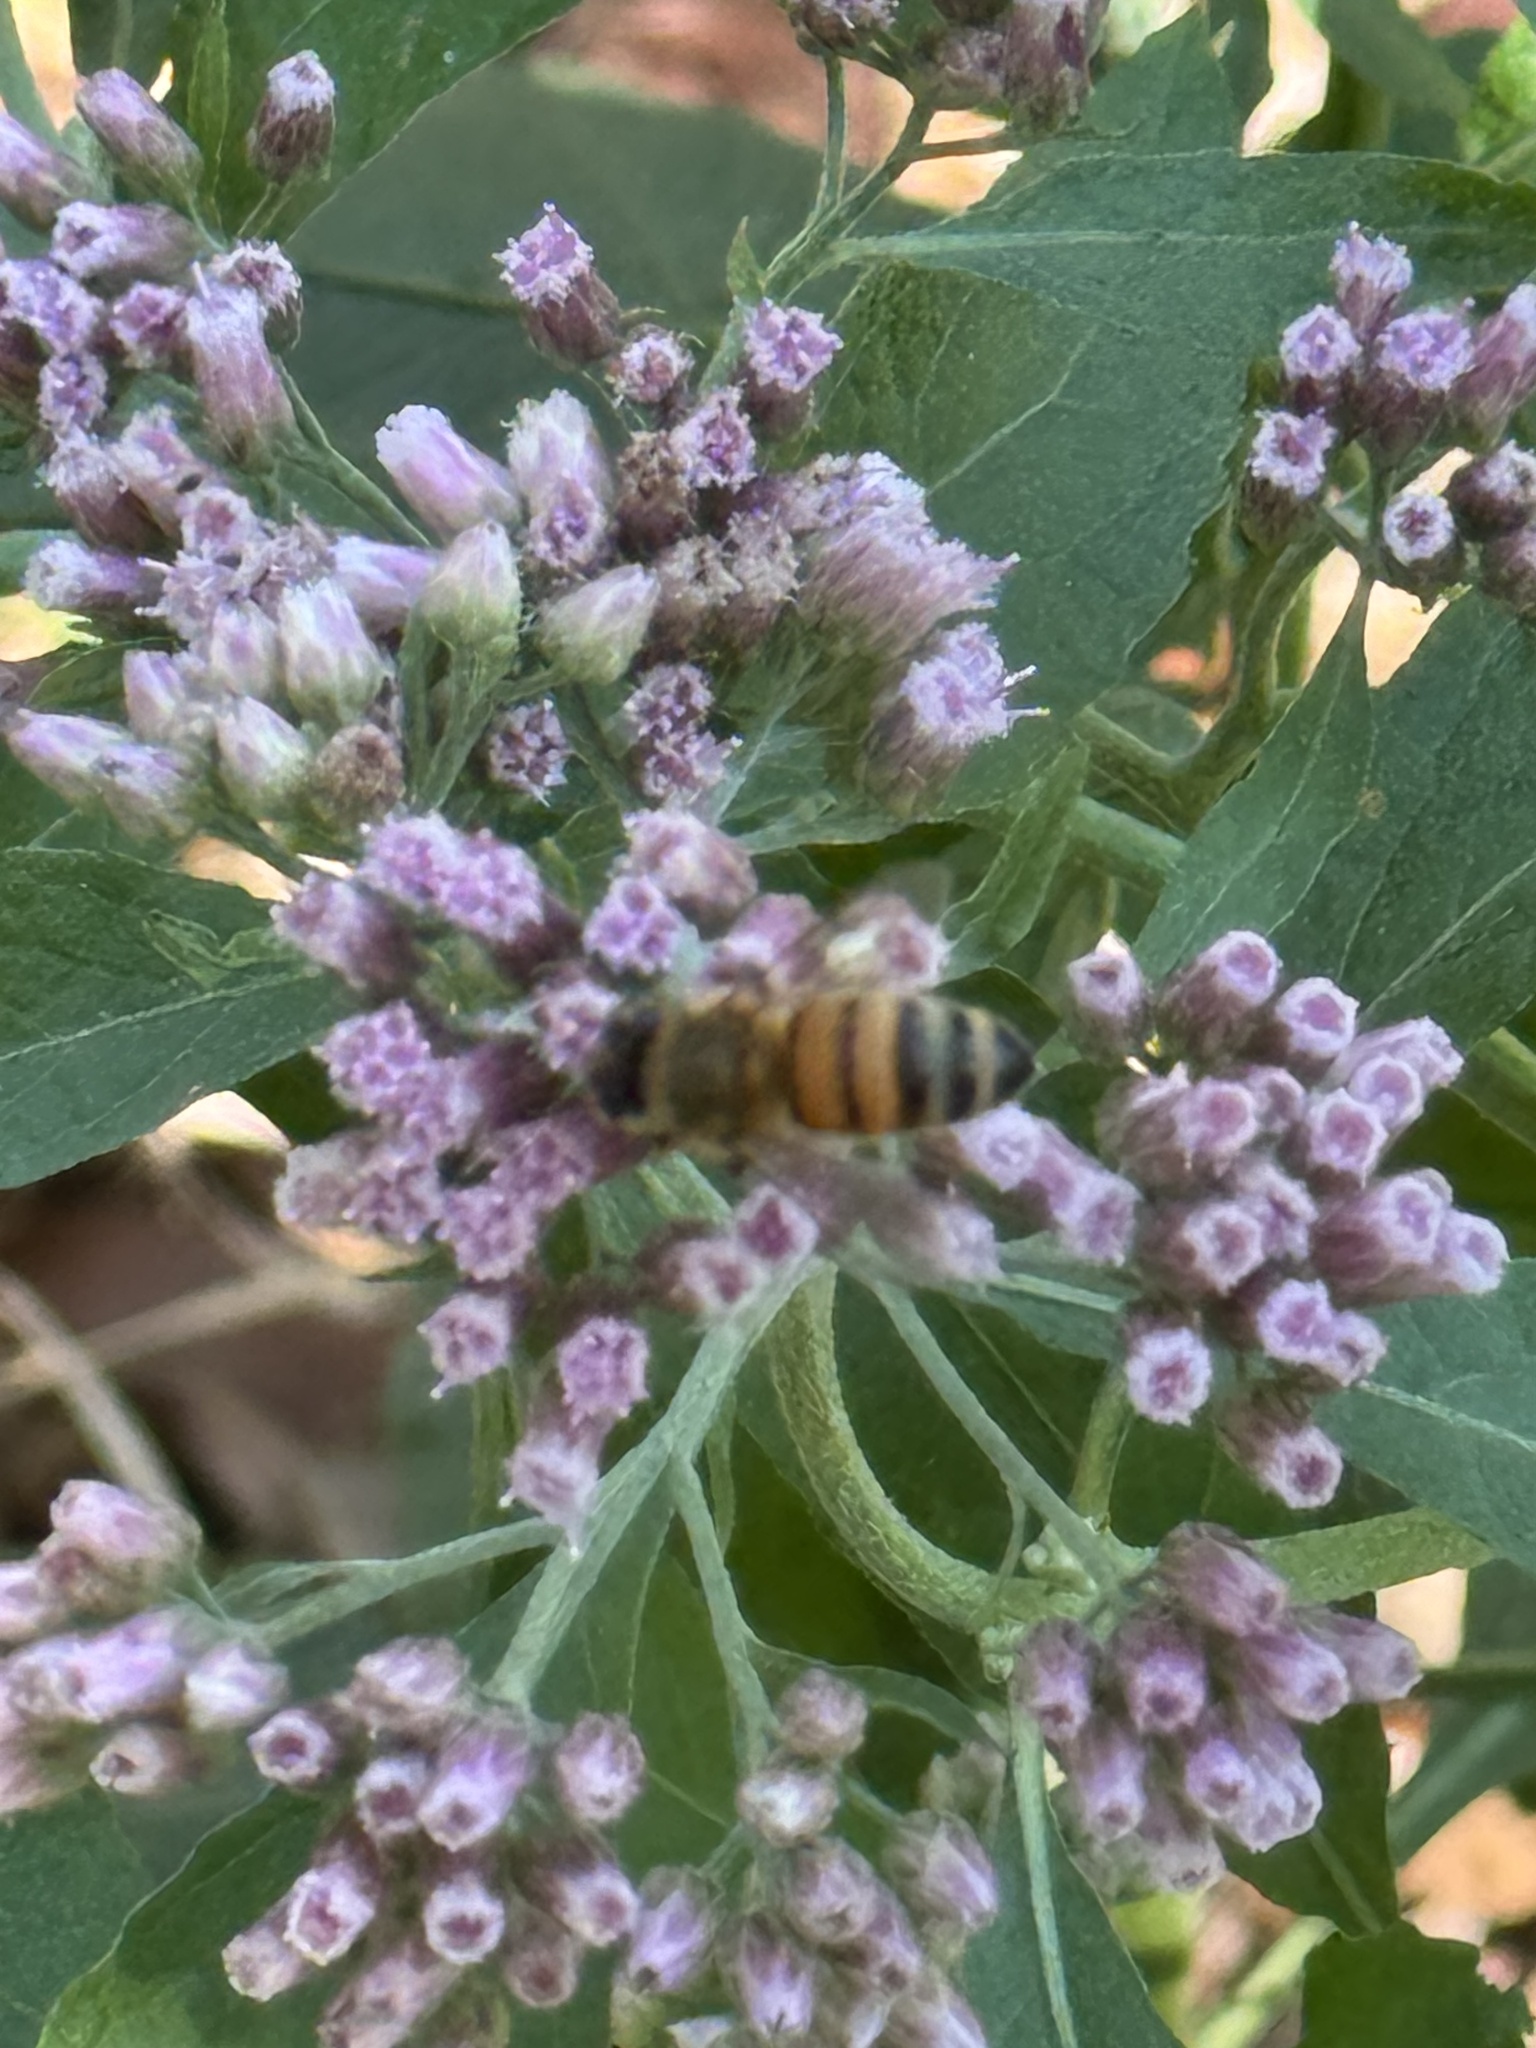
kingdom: Animalia
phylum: Arthropoda
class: Insecta
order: Hymenoptera
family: Apidae
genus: Apis
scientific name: Apis mellifera
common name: Honey bee
